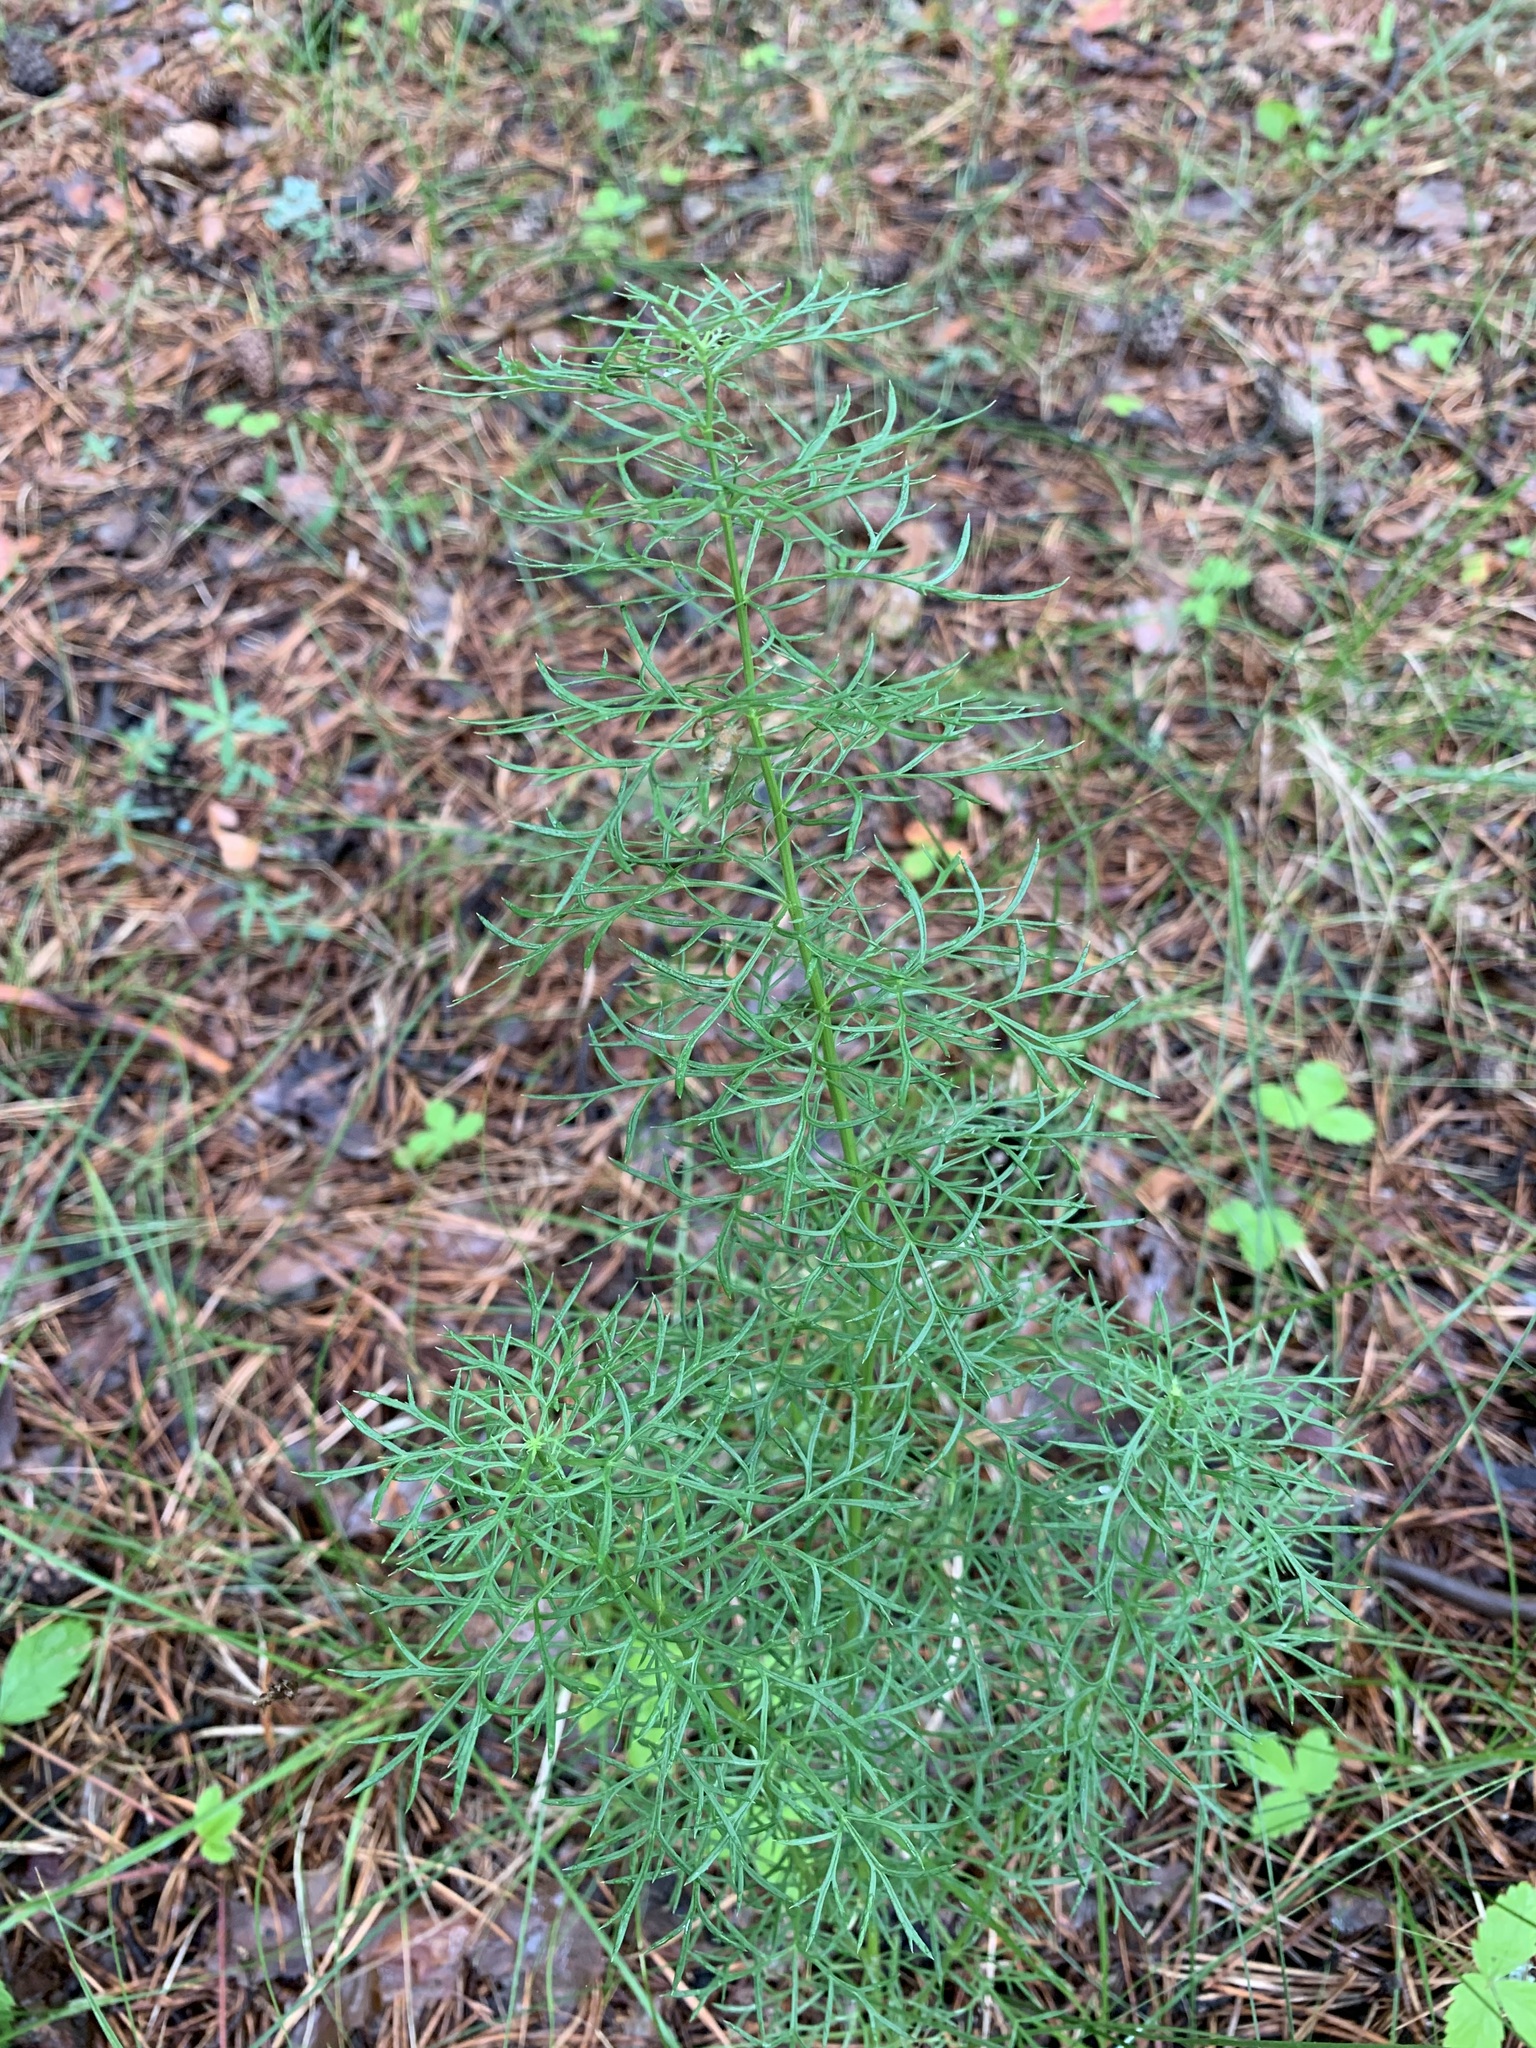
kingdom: Plantae
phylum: Tracheophyta
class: Magnoliopsida
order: Ranunculales
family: Ranunculaceae
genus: Adonis
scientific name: Adonis vernalis
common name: Yellow pheasants-eye
